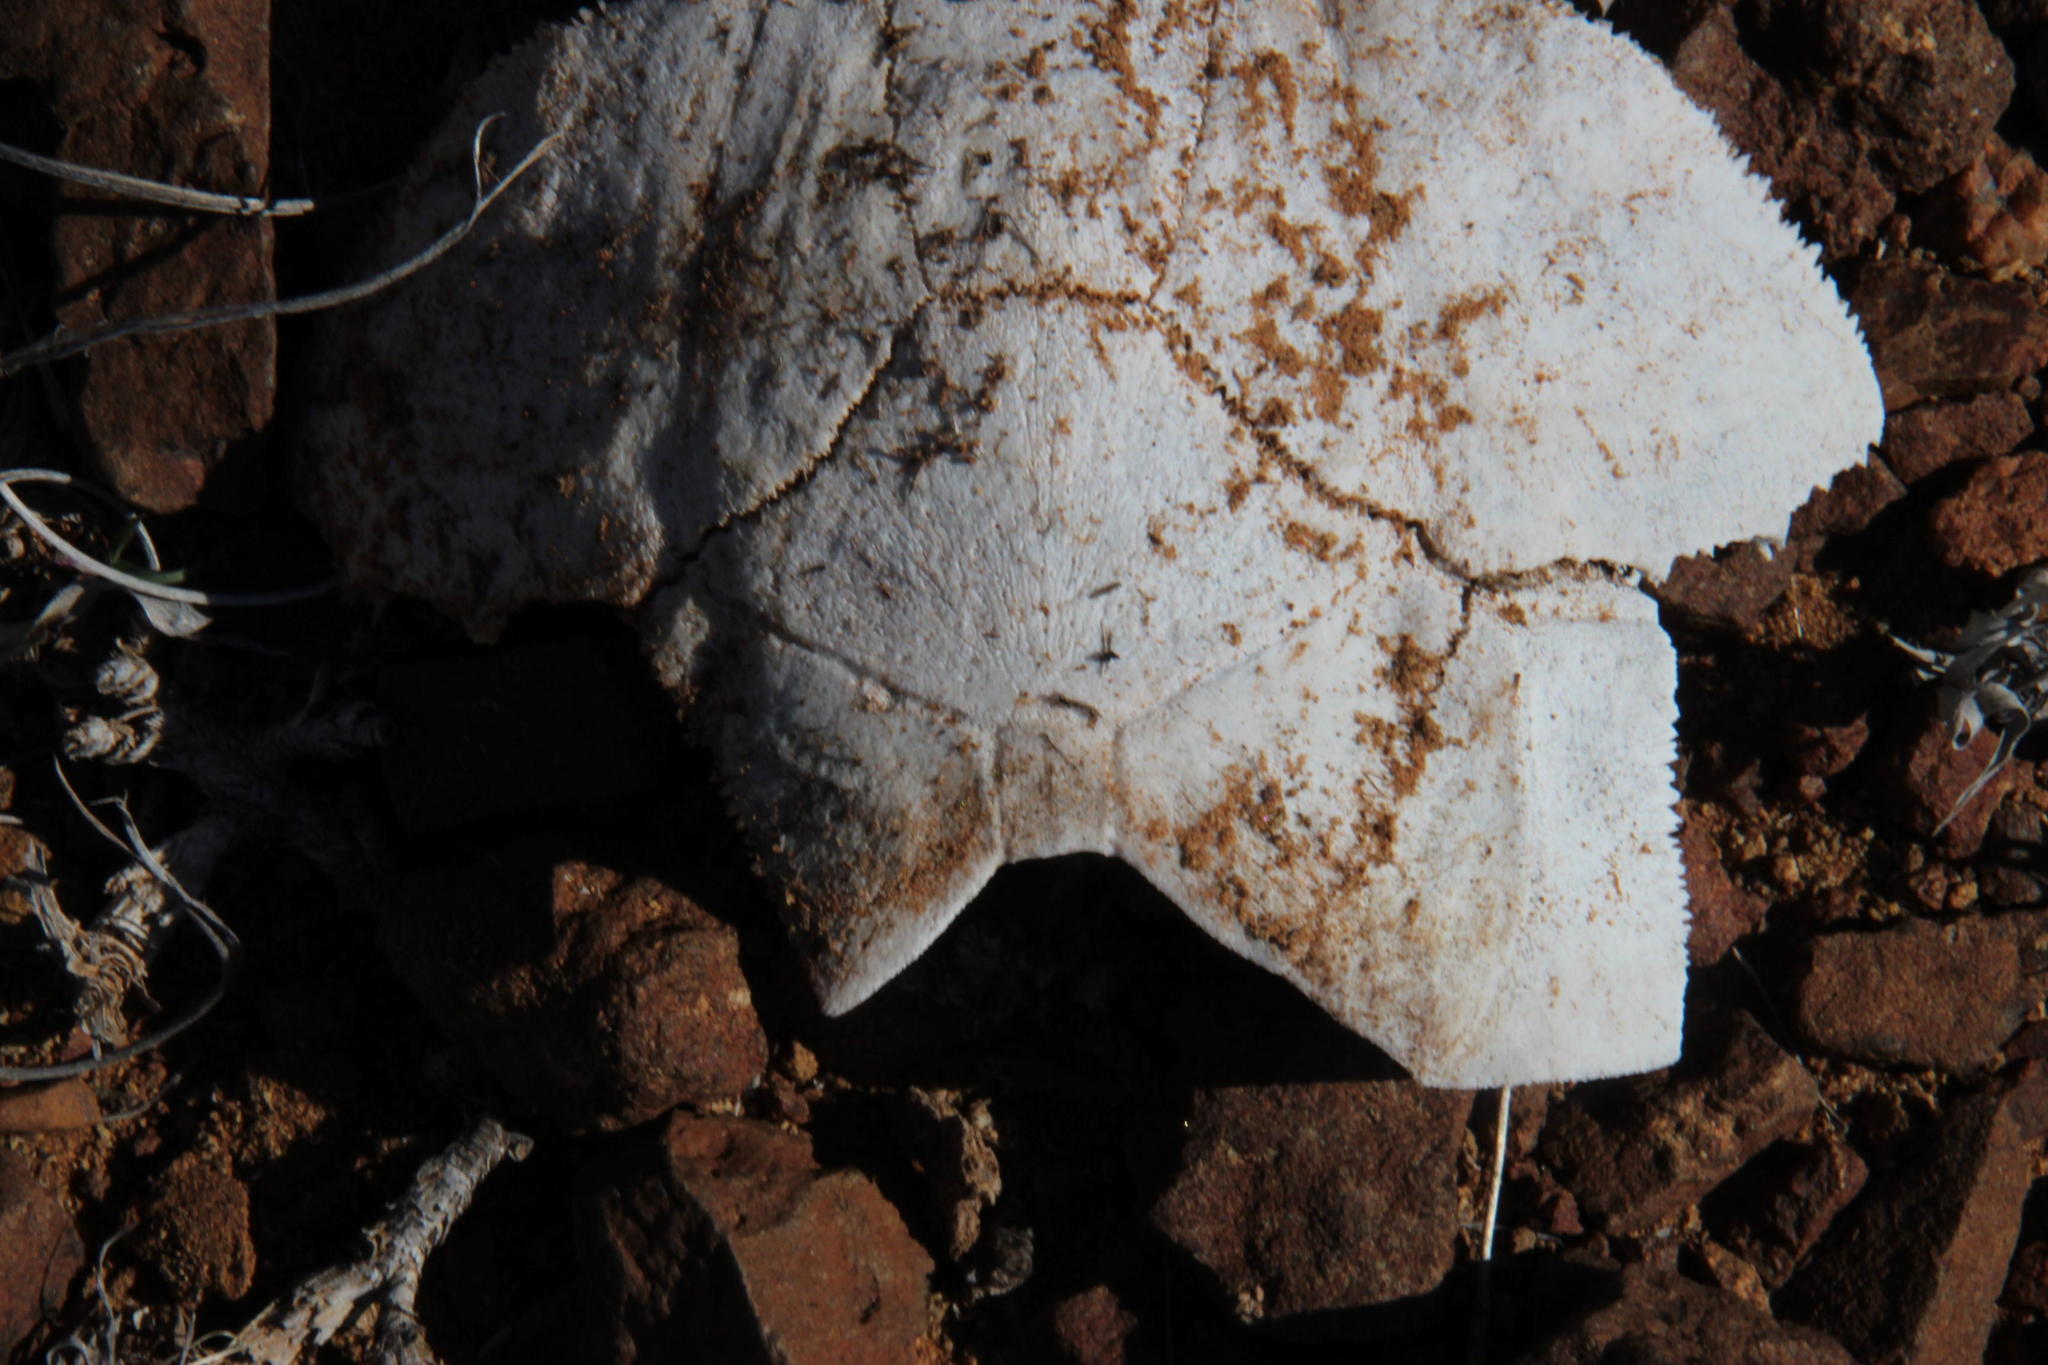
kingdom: Animalia
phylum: Chordata
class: Testudines
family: Testudinidae
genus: Chersina
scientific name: Chersina angulata
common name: South african bowsprit tortoise
